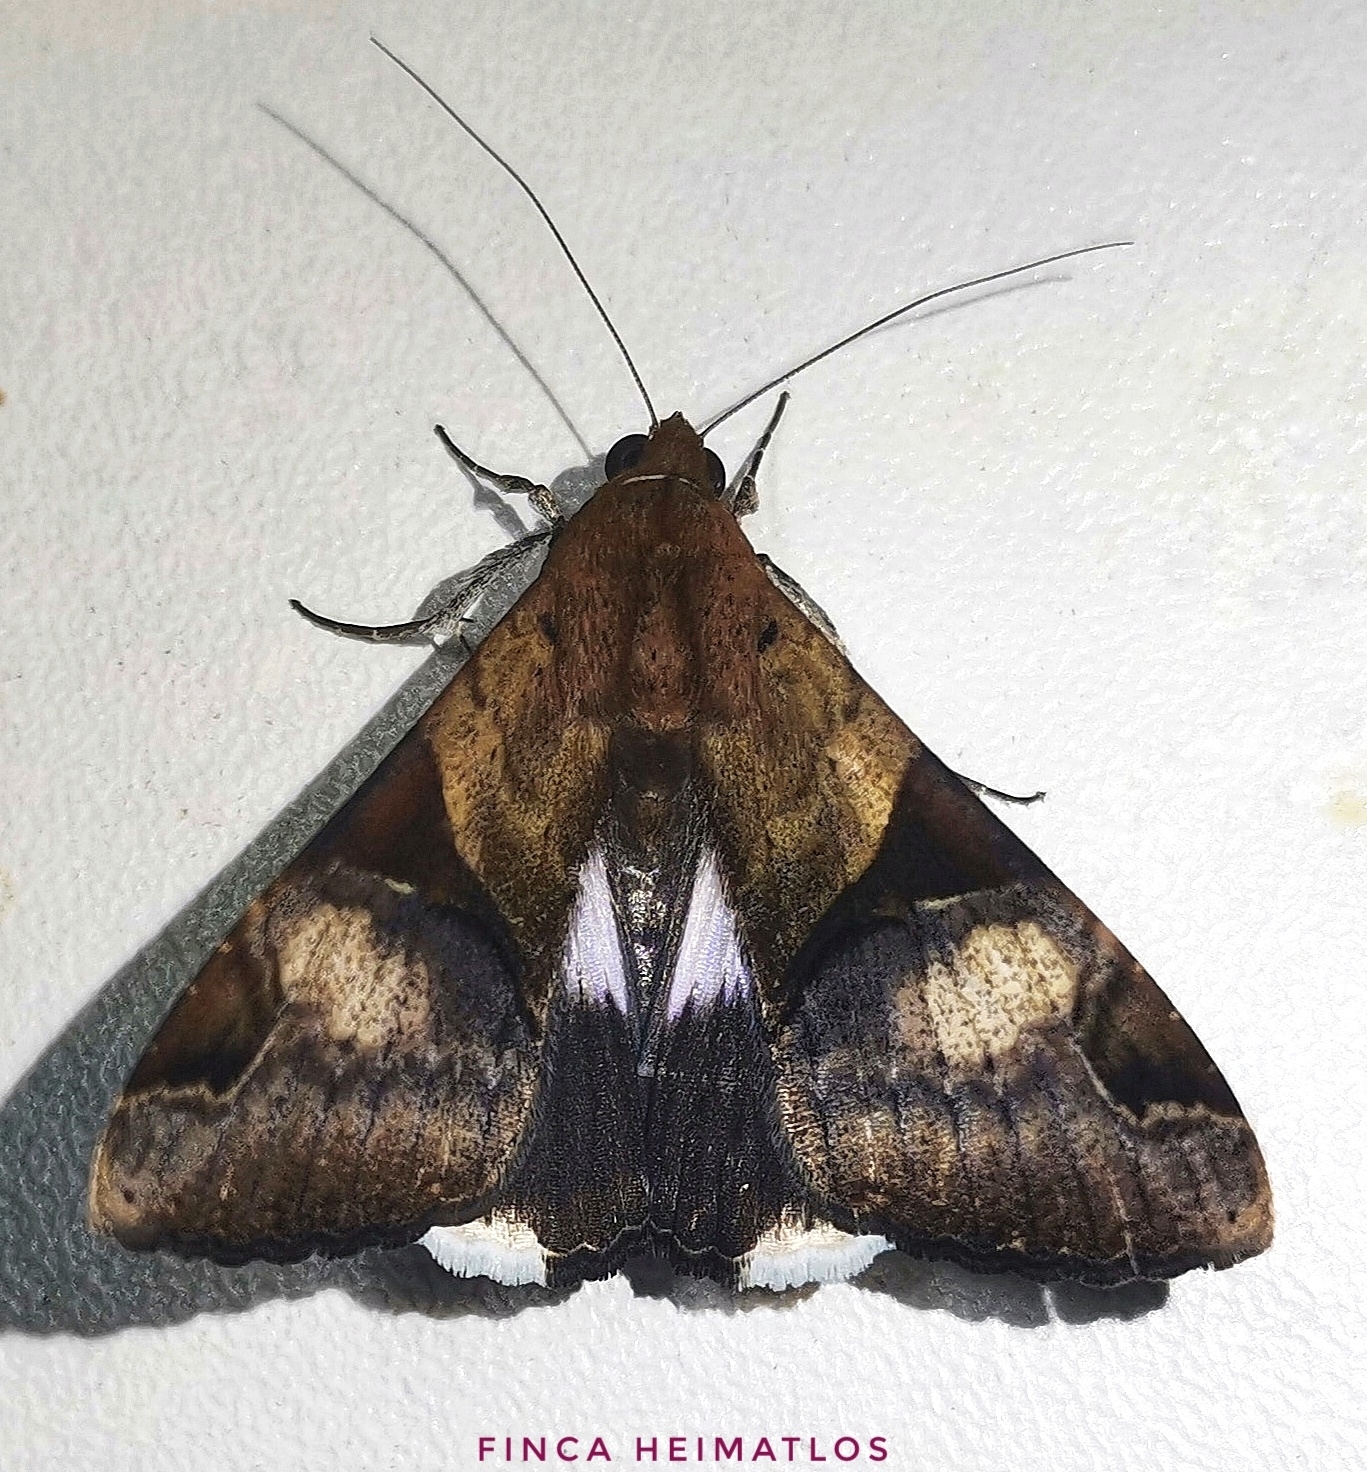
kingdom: Animalia
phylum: Arthropoda
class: Insecta
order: Lepidoptera
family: Erebidae
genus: Melipotis
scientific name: Melipotis fasciolaris
